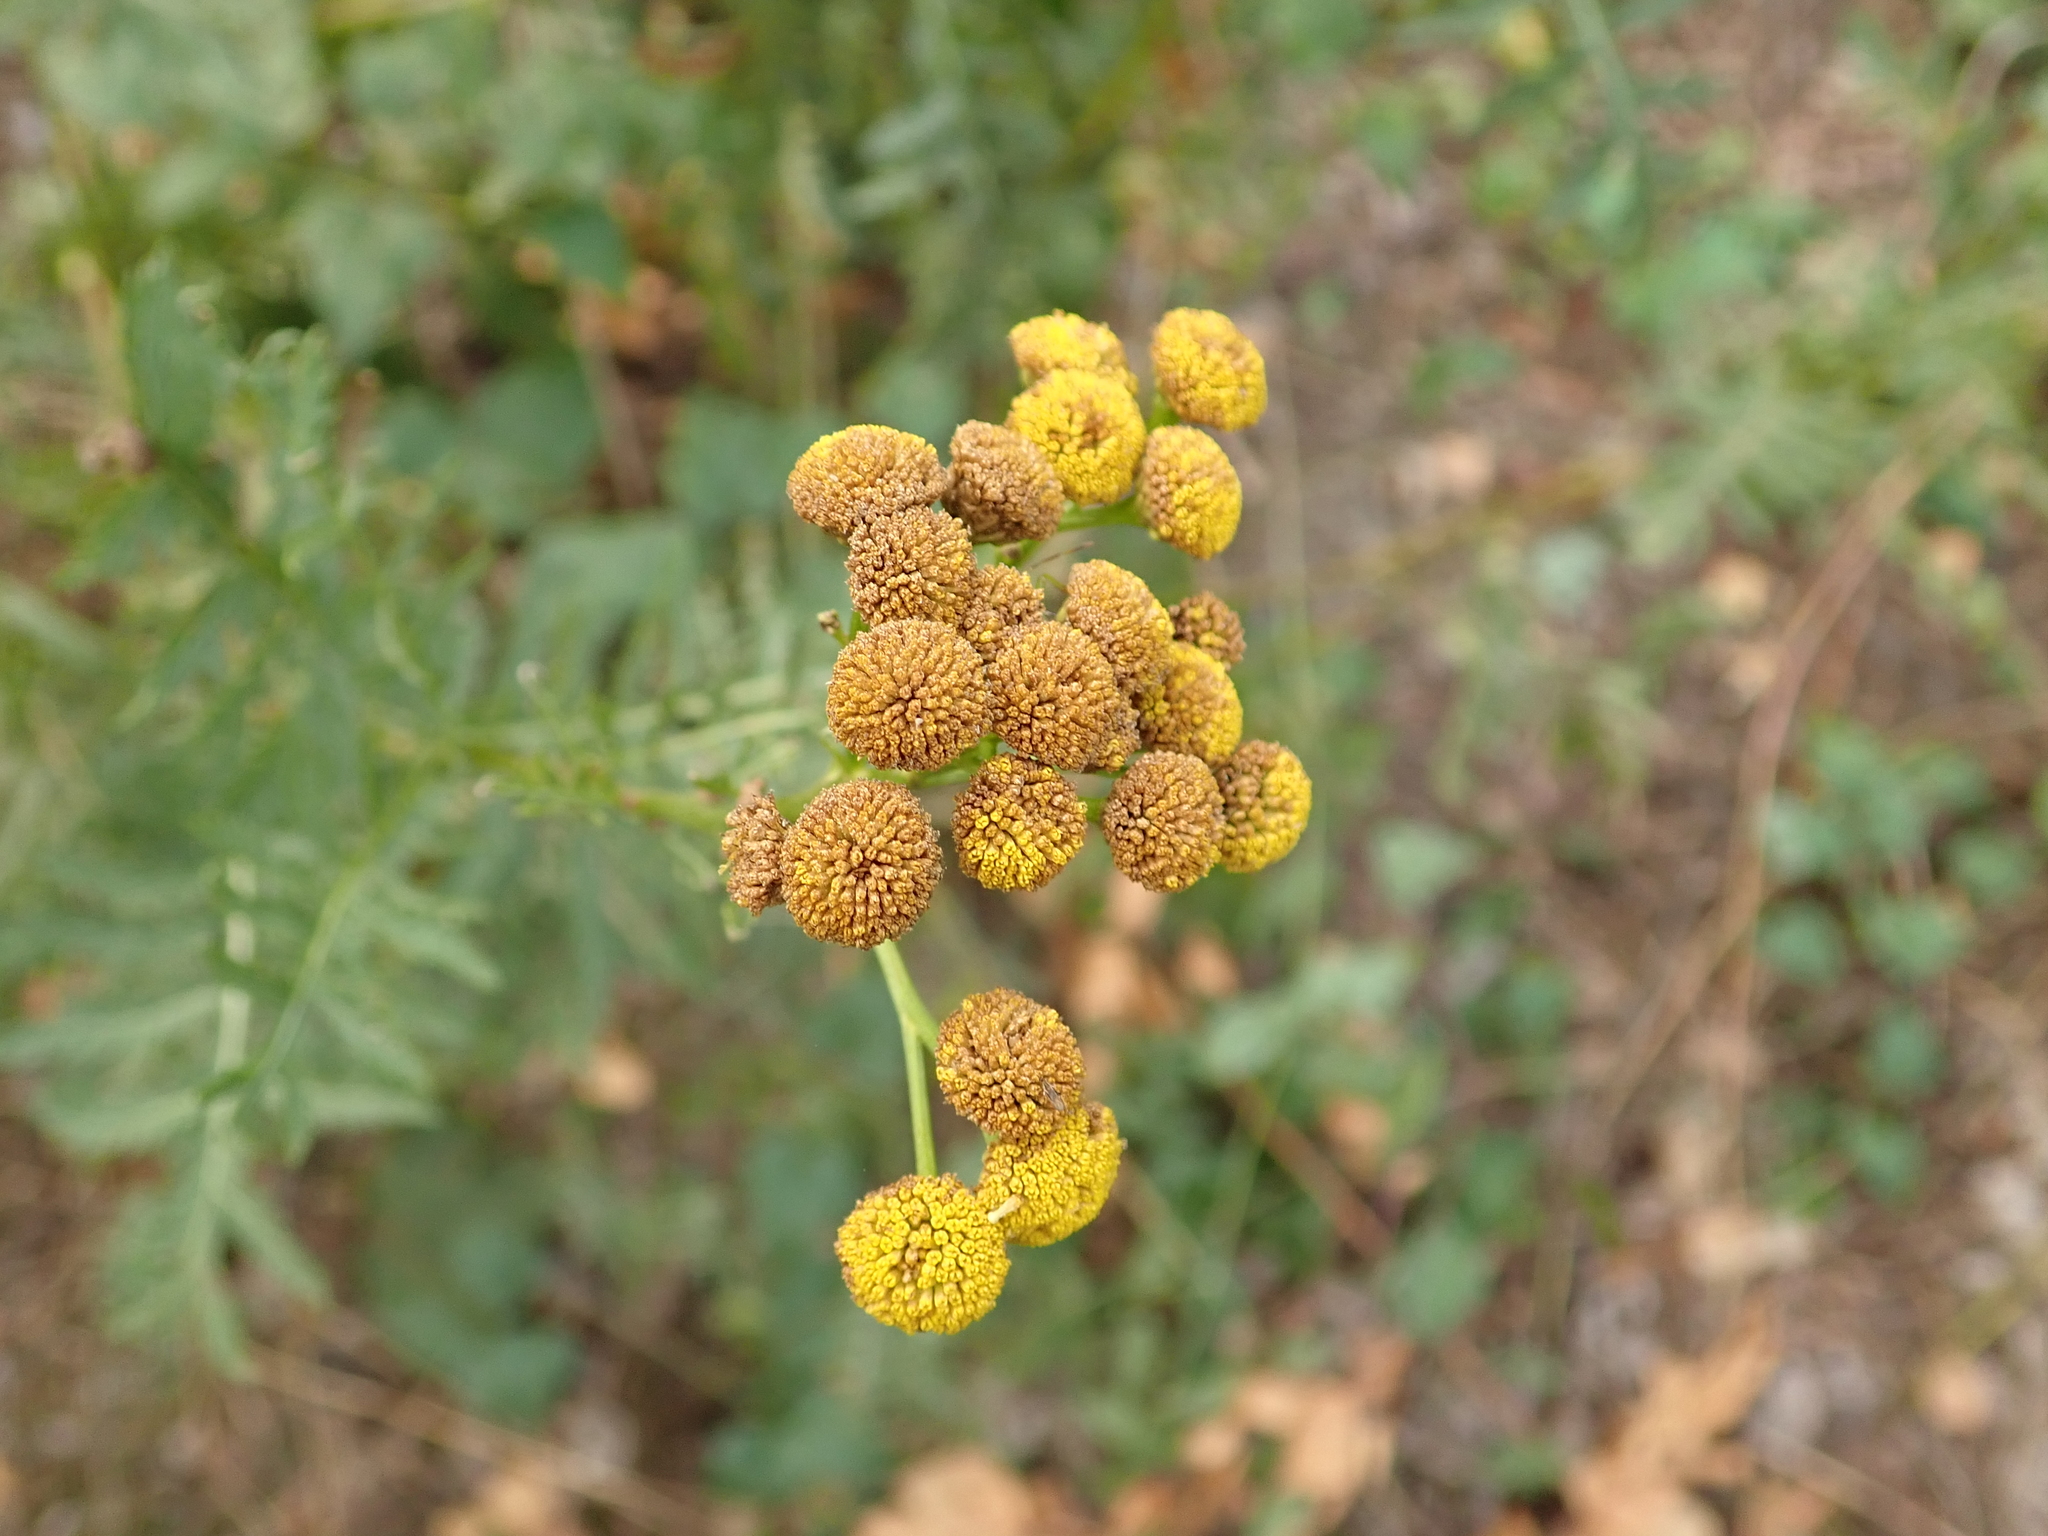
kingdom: Plantae
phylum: Tracheophyta
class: Magnoliopsida
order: Asterales
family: Asteraceae
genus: Tanacetum
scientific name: Tanacetum vulgare
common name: Common tansy
